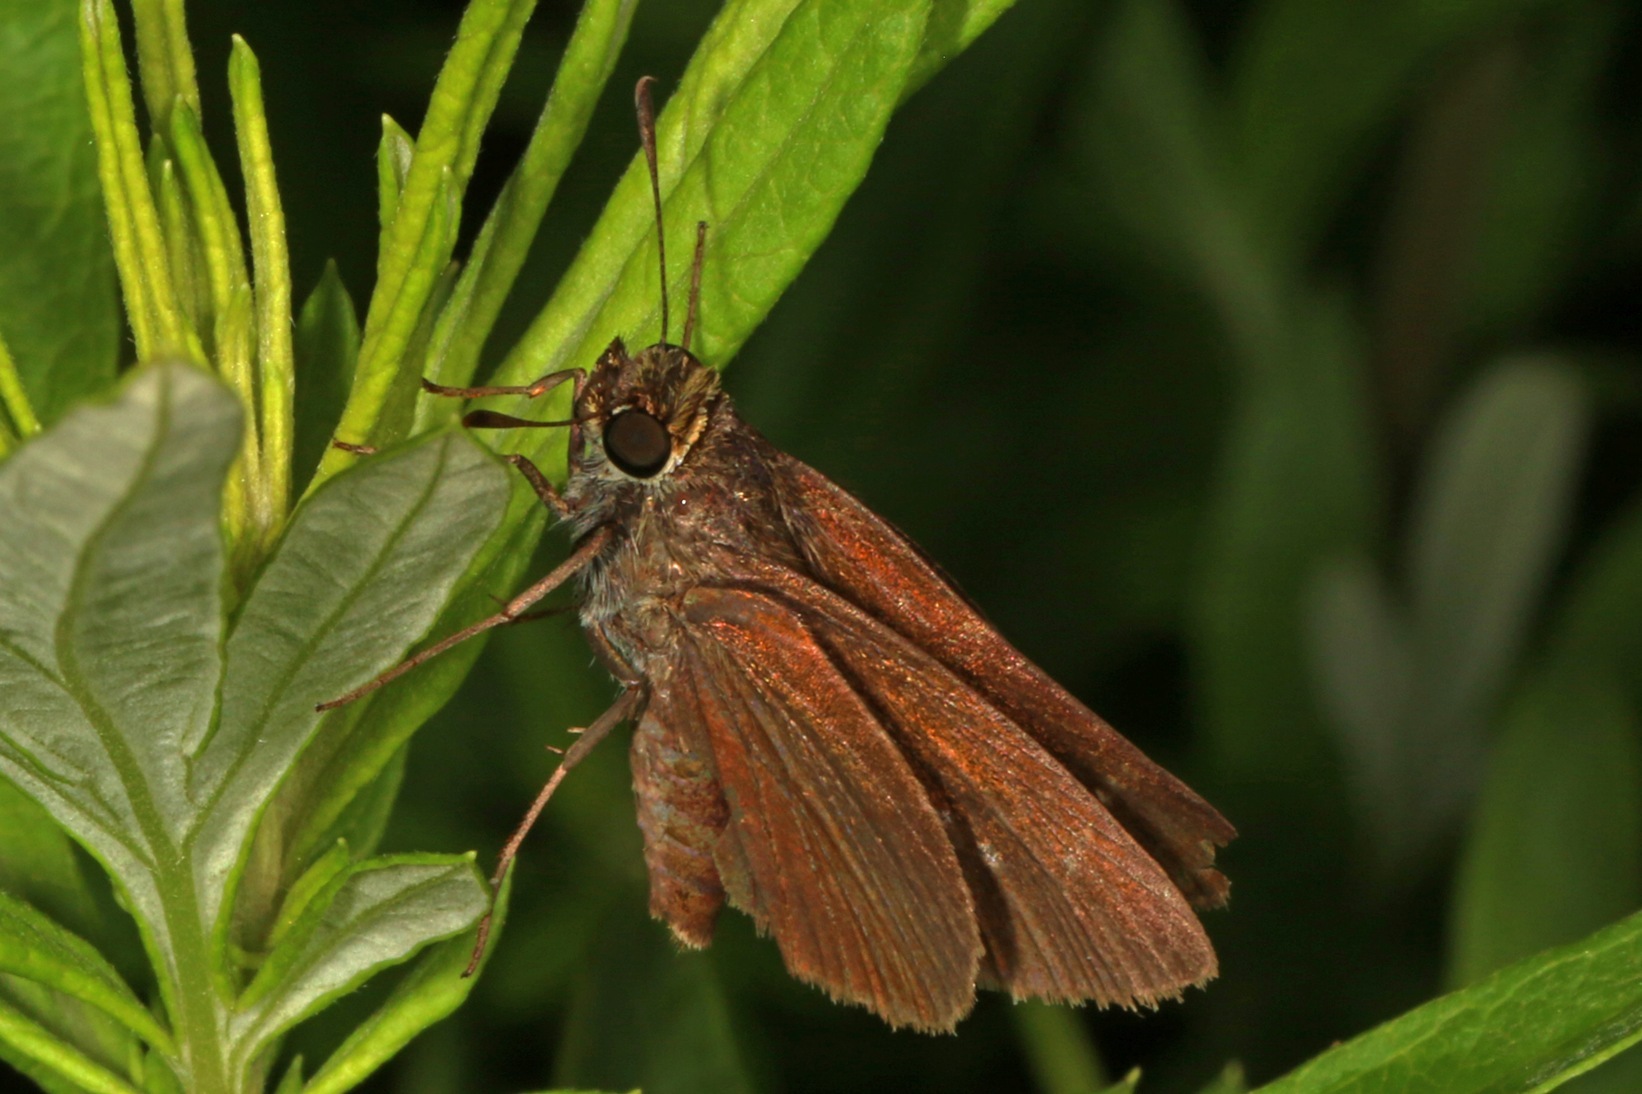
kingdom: Animalia
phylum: Arthropoda
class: Insecta
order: Lepidoptera
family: Hesperiidae
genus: Euphyes
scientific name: Euphyes vestris
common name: Dun skipper
